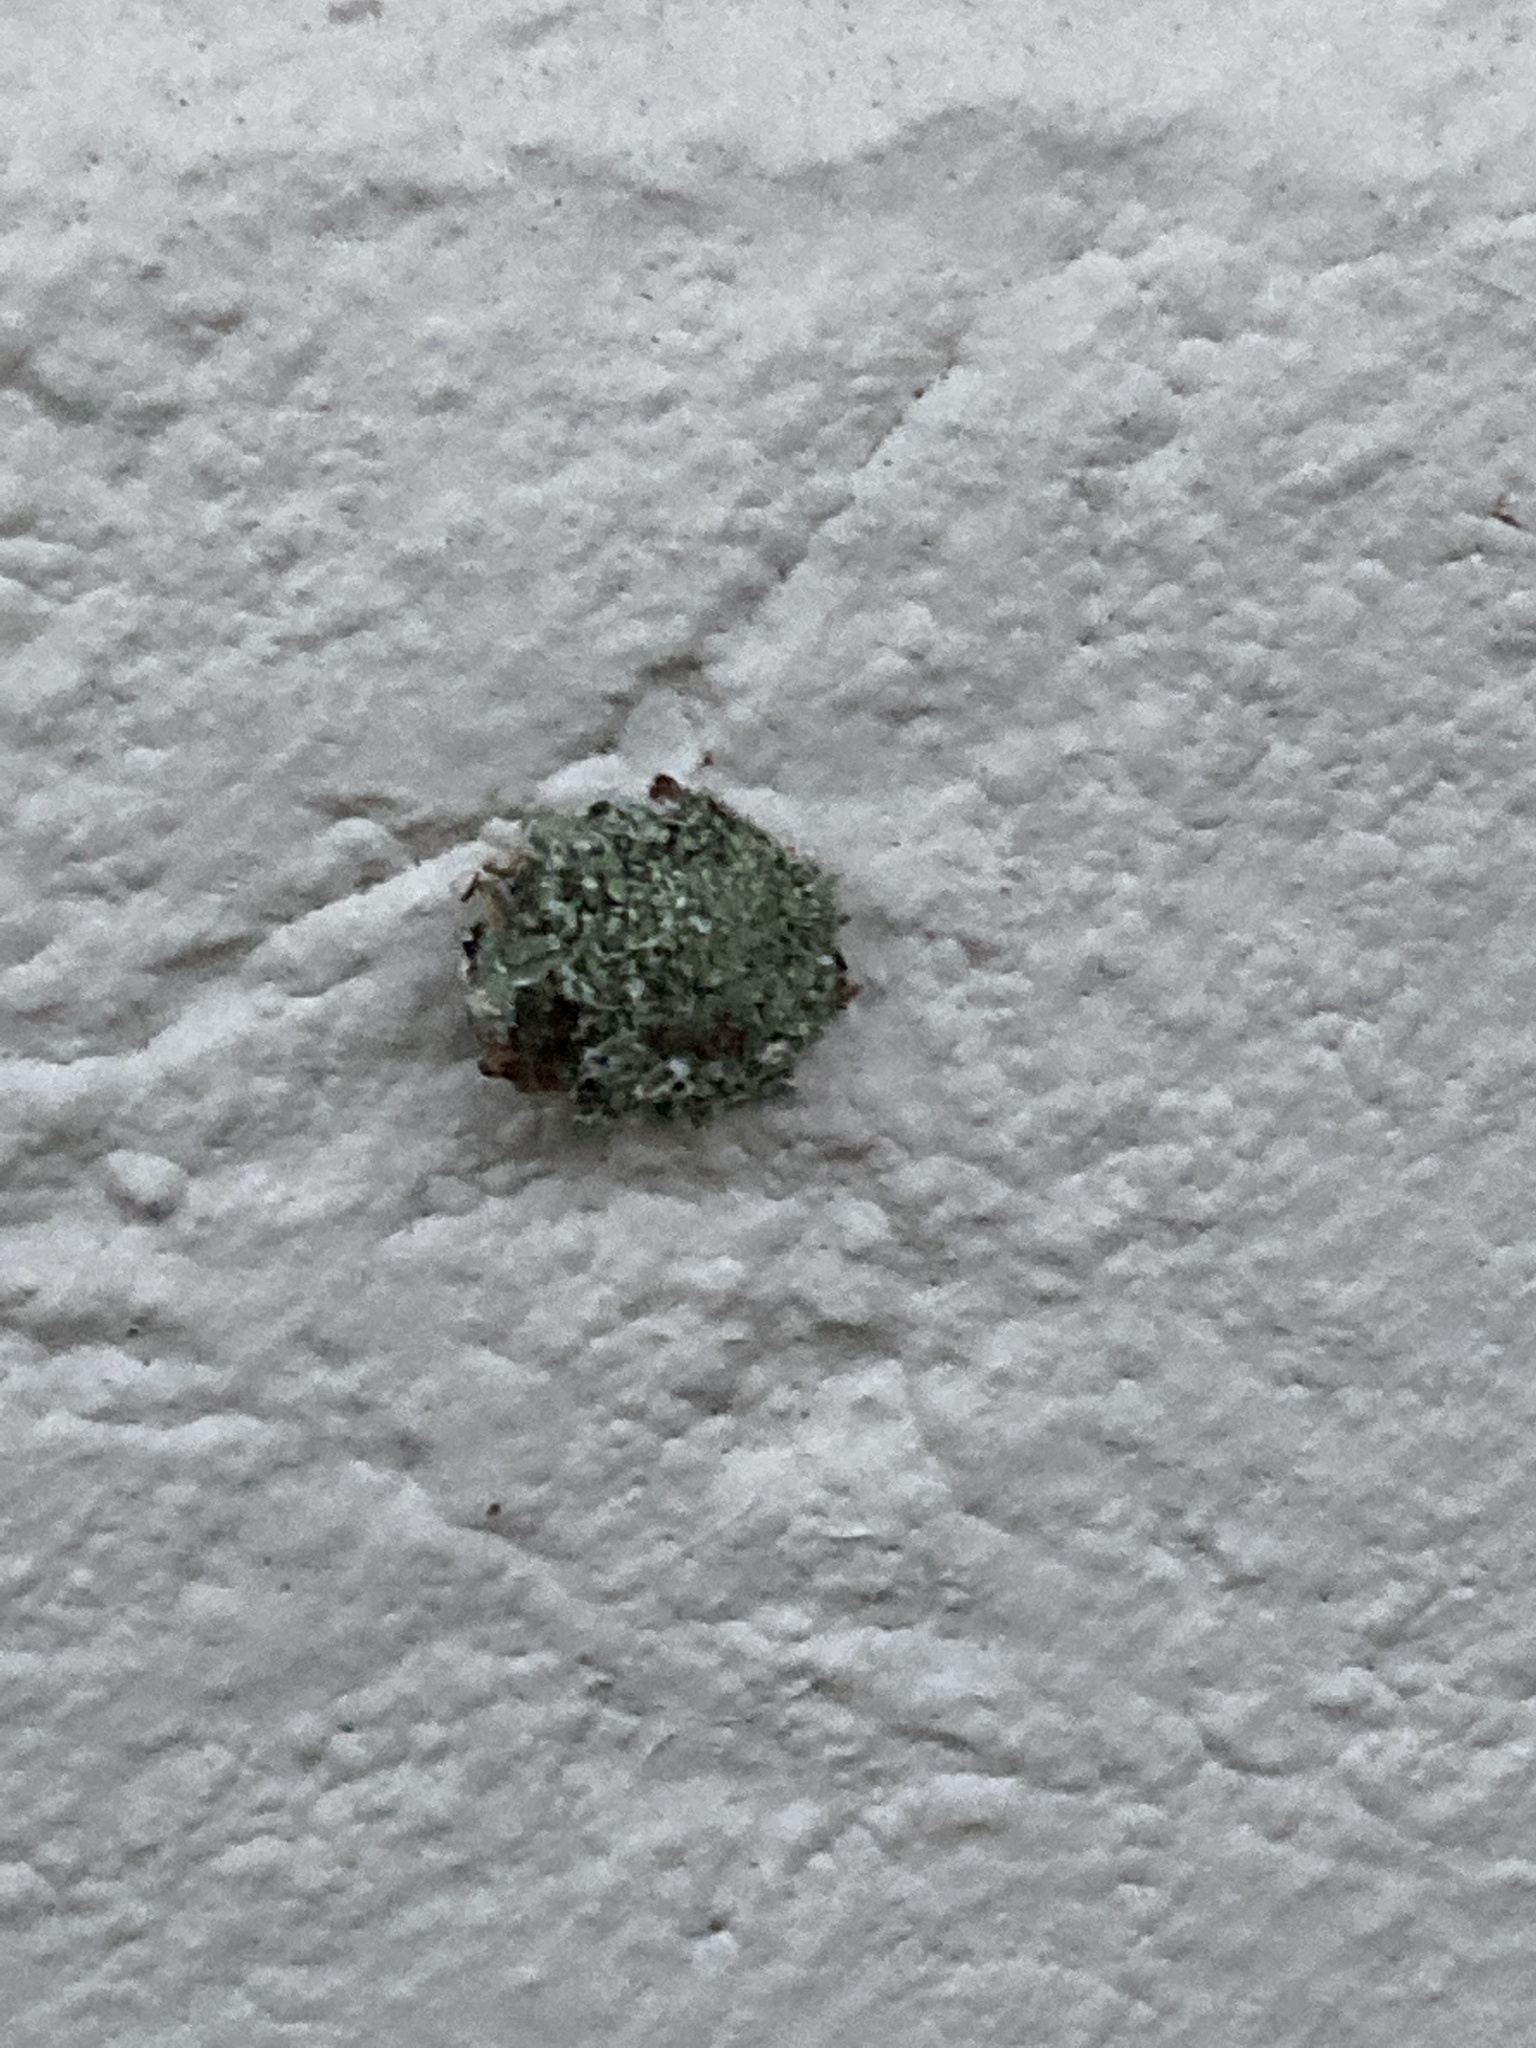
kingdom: Animalia
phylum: Arthropoda
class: Insecta
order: Neuroptera
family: Chrysopidae
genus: Leucochrysa
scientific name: Leucochrysa pavida
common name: Lichen-carrying green lacewing
